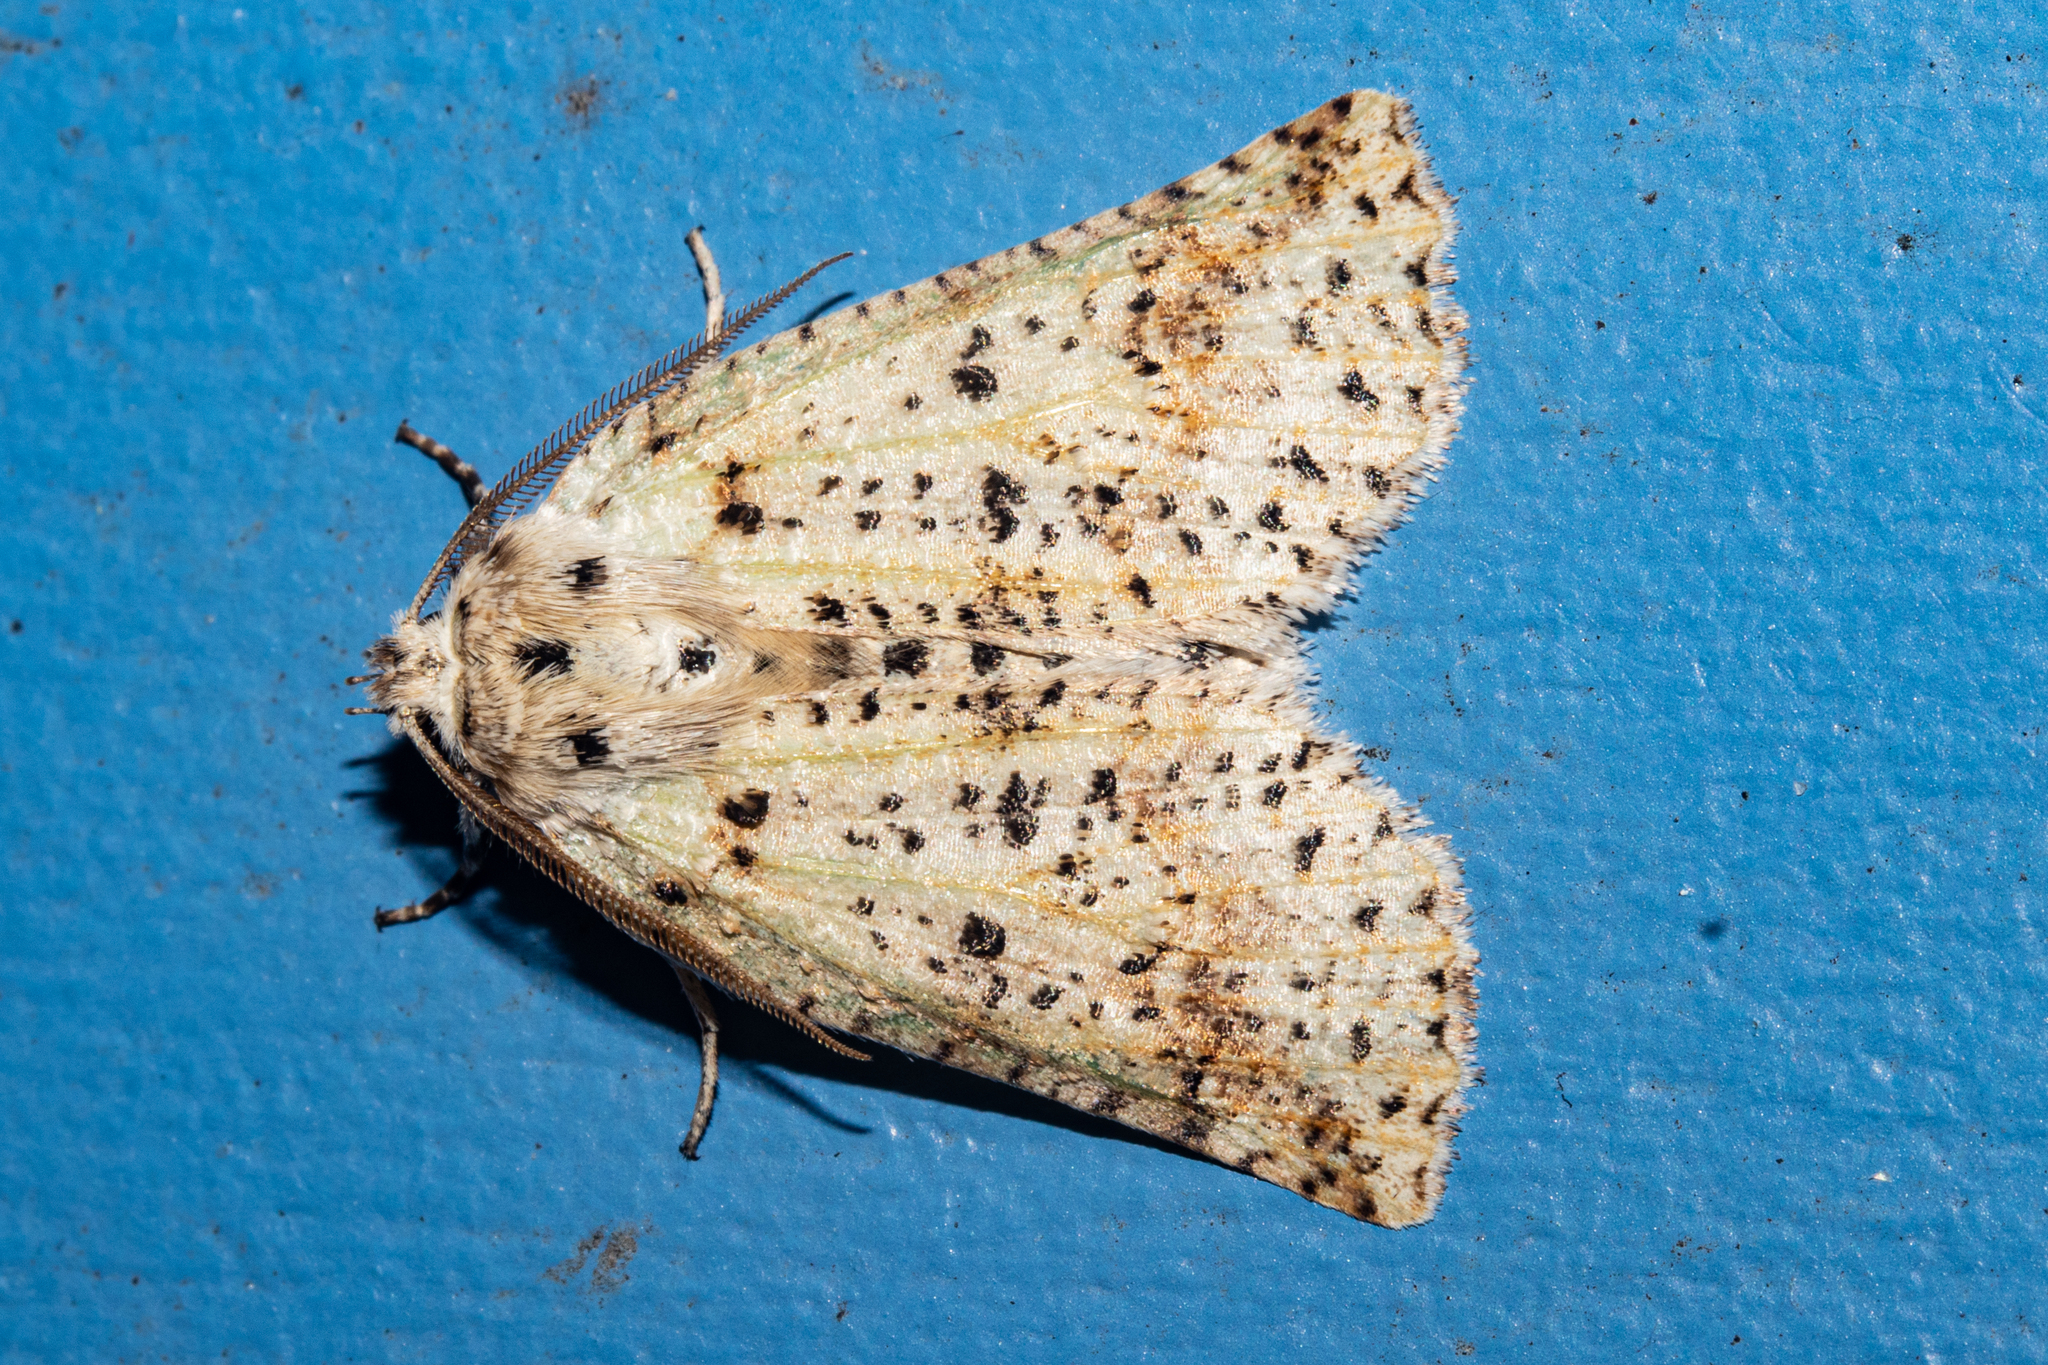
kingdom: Animalia
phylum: Arthropoda
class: Insecta
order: Lepidoptera
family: Geometridae
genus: Declana
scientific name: Declana floccosa
